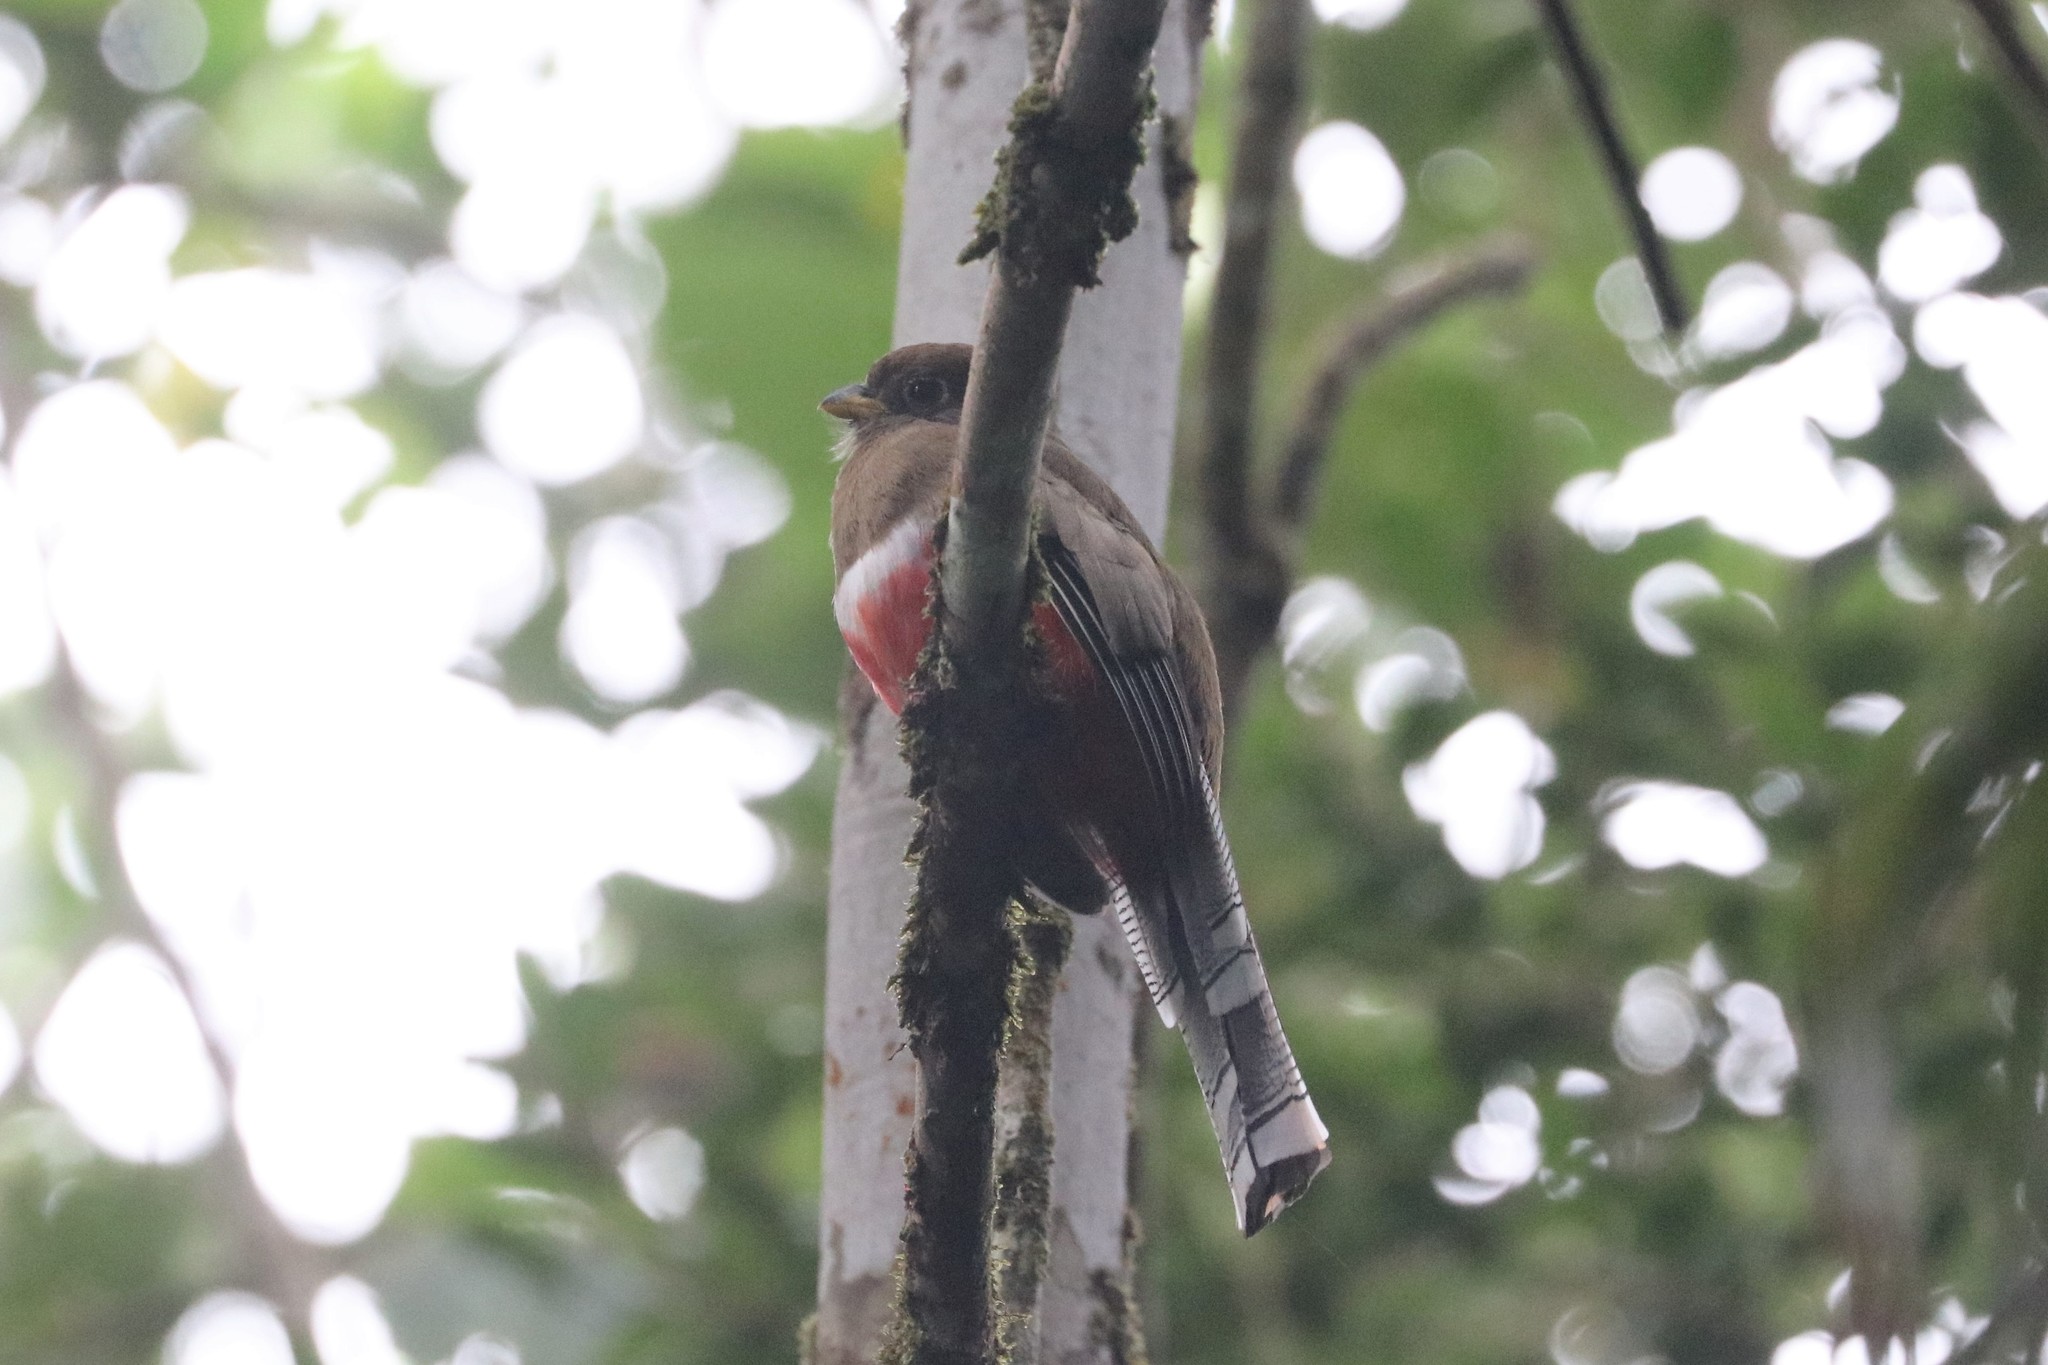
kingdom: Animalia
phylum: Chordata
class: Aves
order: Trogoniformes
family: Trogonidae
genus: Trogon
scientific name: Trogon collaris
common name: Collared trogon
